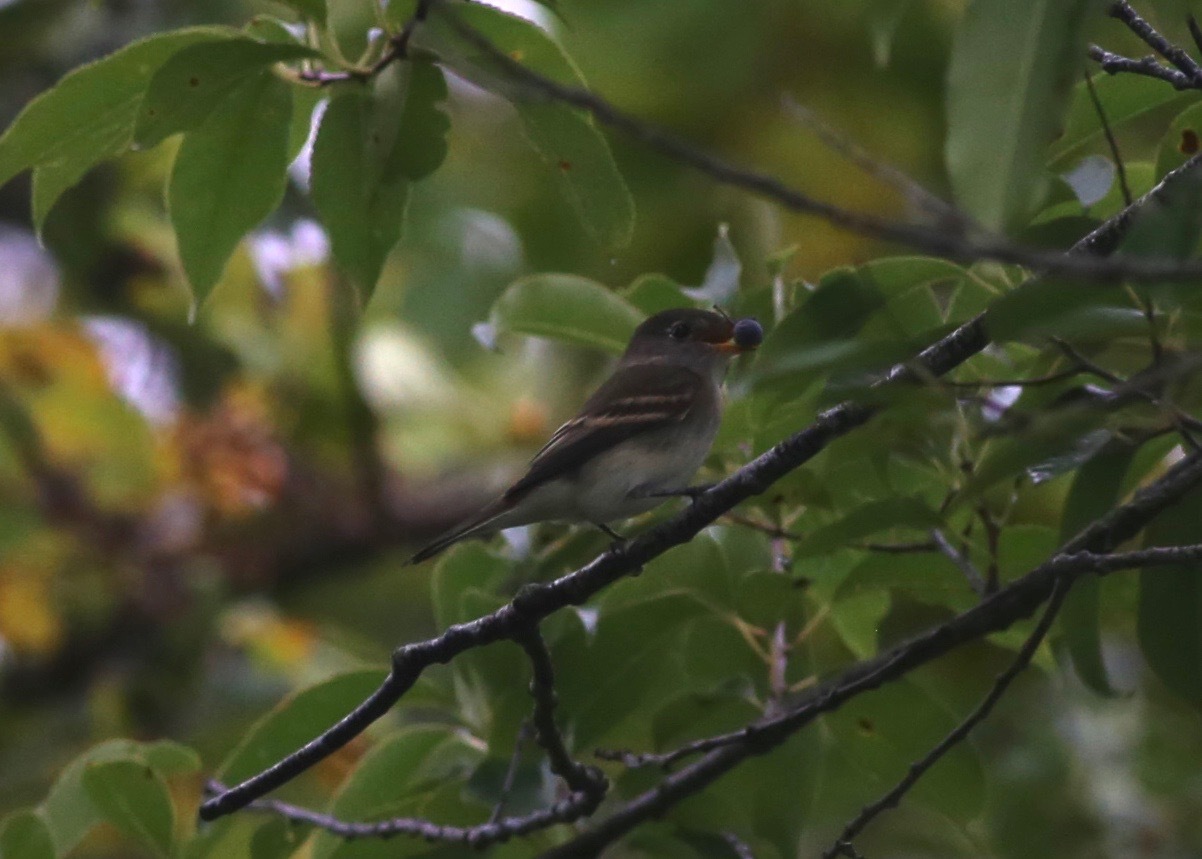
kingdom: Animalia
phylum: Chordata
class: Aves
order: Passeriformes
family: Tyrannidae
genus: Empidonax
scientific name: Empidonax minimus
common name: Least flycatcher
